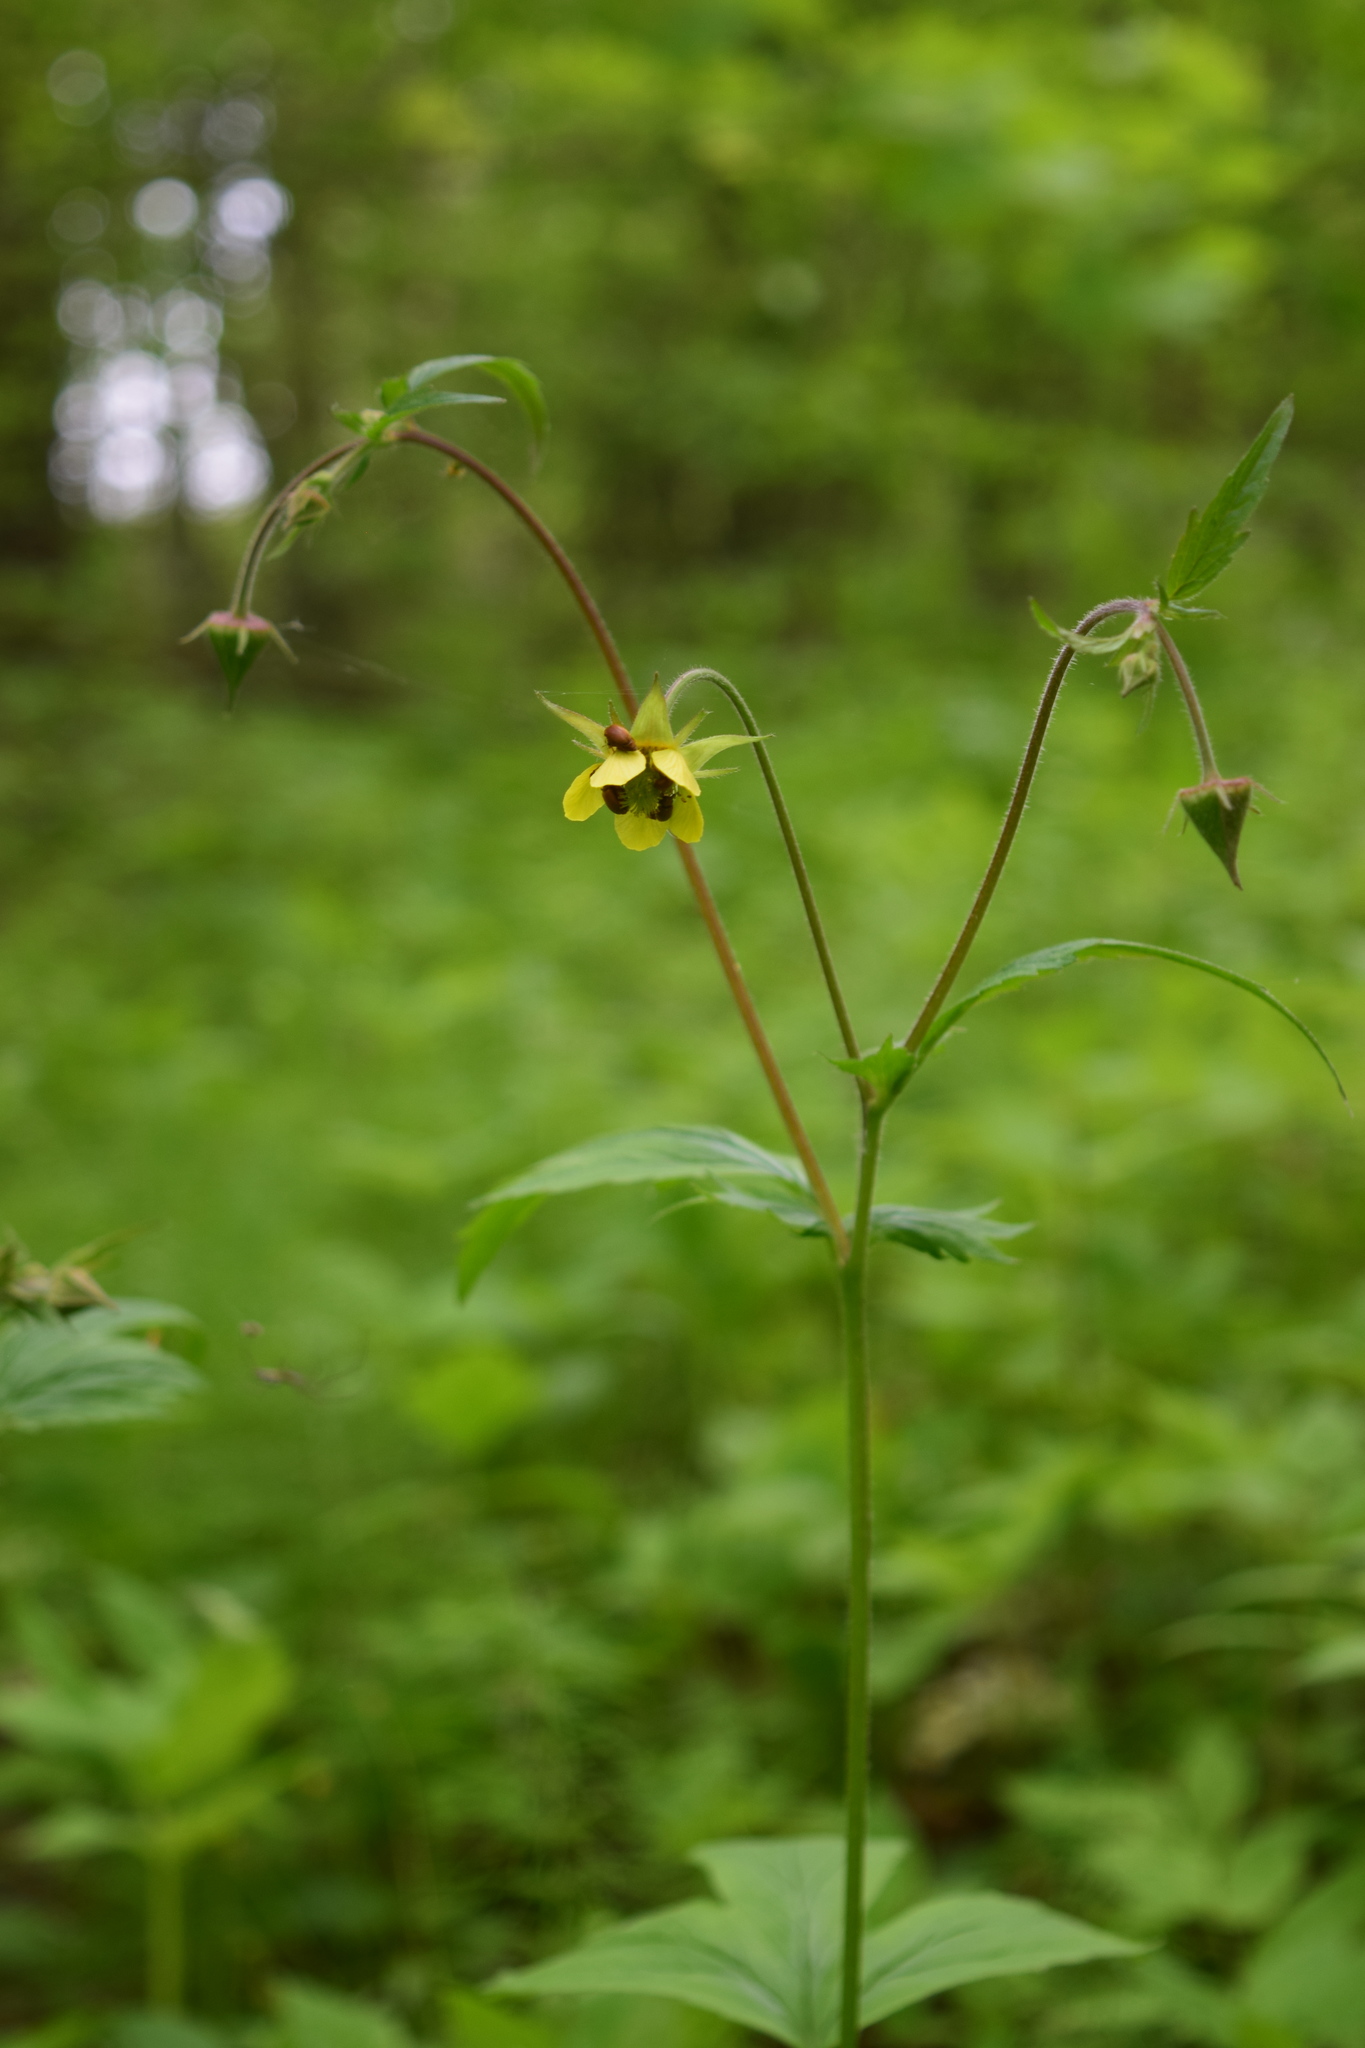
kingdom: Plantae
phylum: Tracheophyta
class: Magnoliopsida
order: Rosales
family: Rosaceae
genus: Geum
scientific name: Geum intermedium
